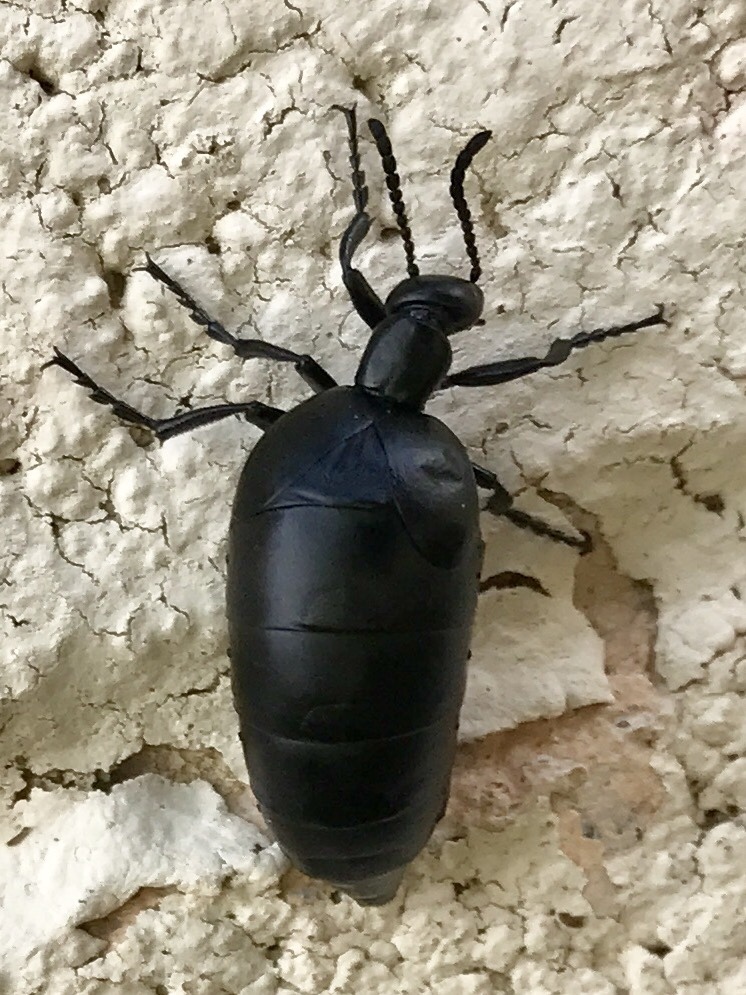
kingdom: Animalia
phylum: Arthropoda
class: Insecta
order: Coleoptera
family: Meloidae
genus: Meloe
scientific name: Meloe laevis
